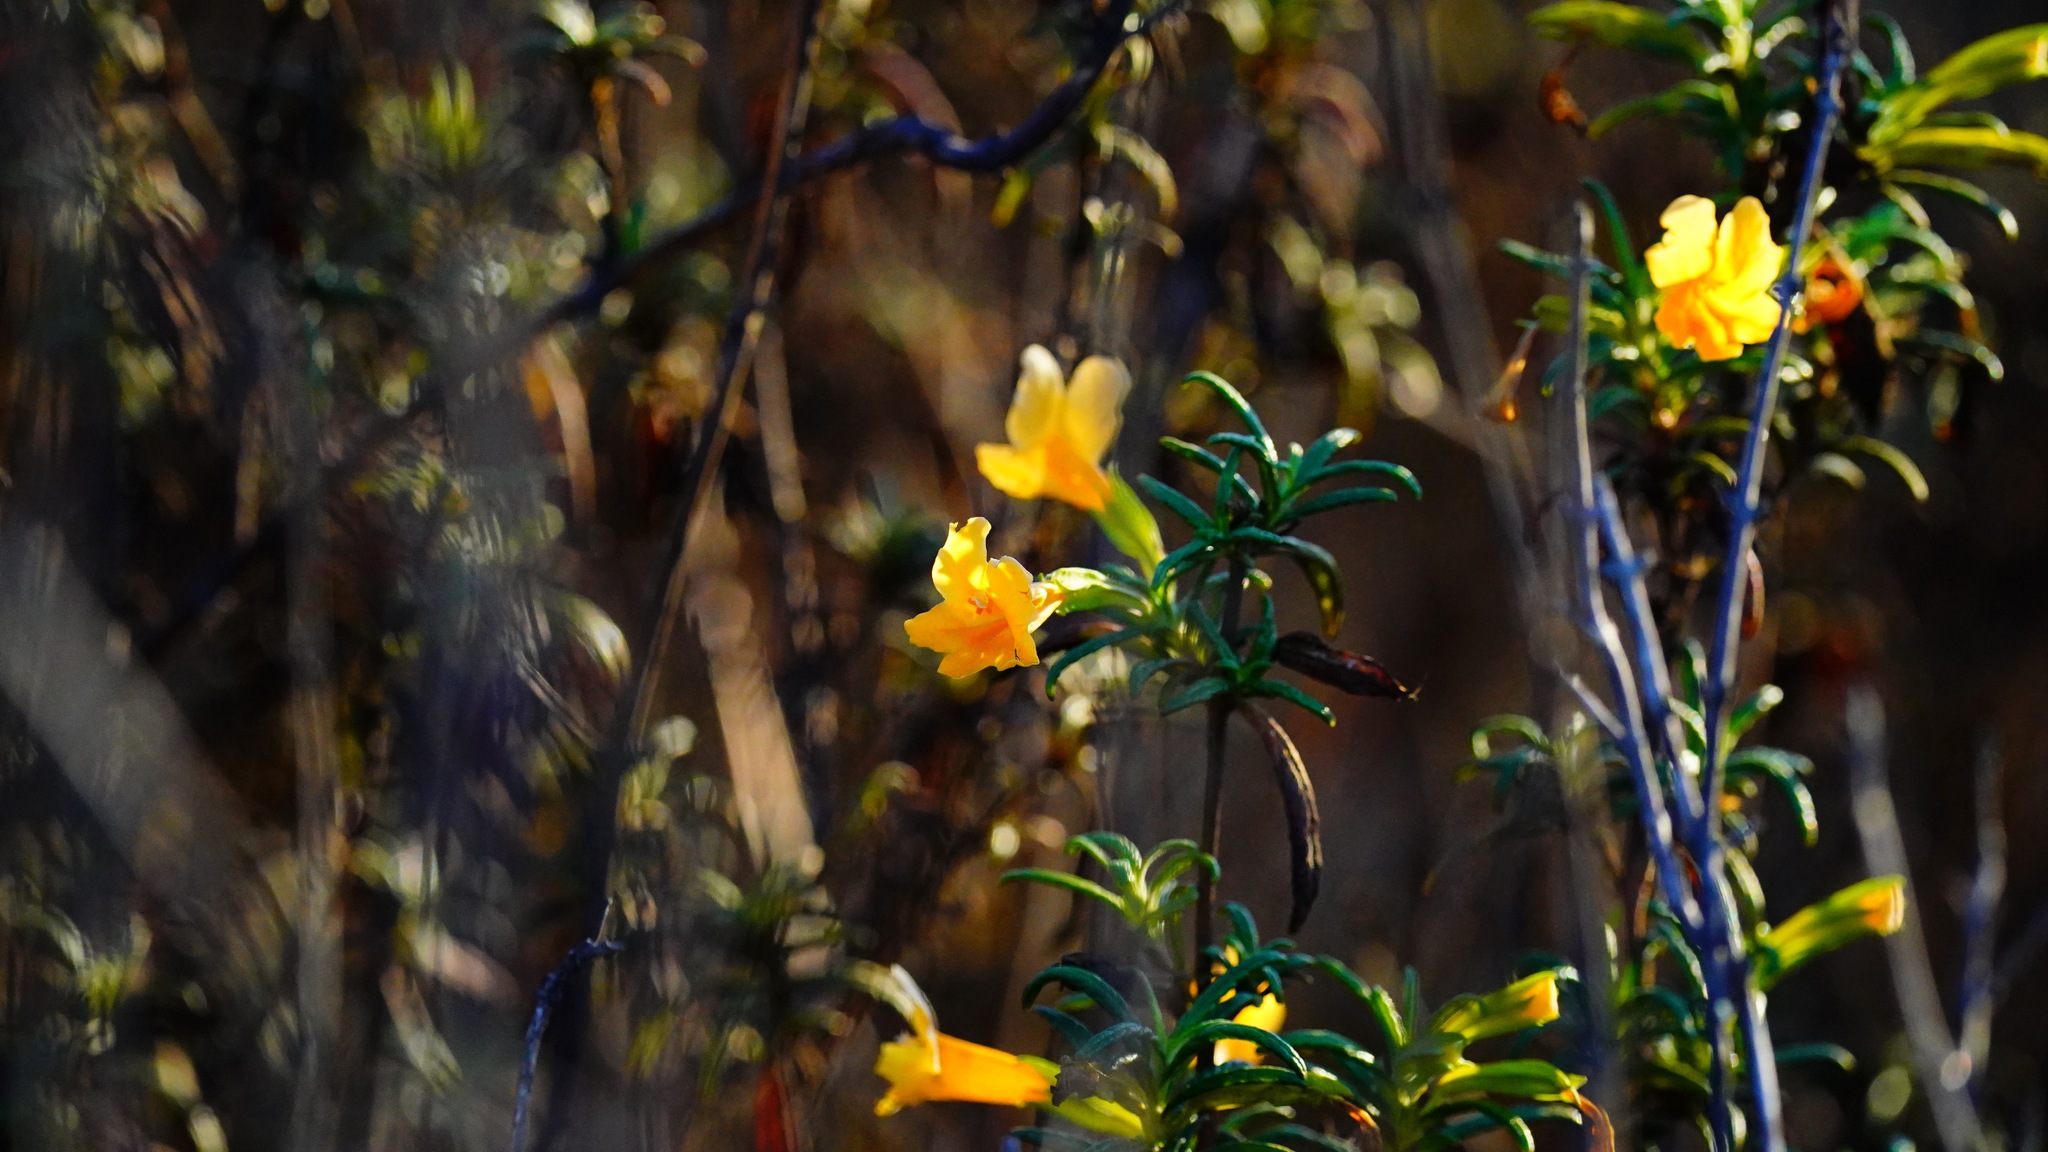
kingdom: Plantae
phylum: Tracheophyta
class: Magnoliopsida
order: Lamiales
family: Phrymaceae
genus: Diplacus
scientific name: Diplacus aurantiacus
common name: Bush monkey-flower
